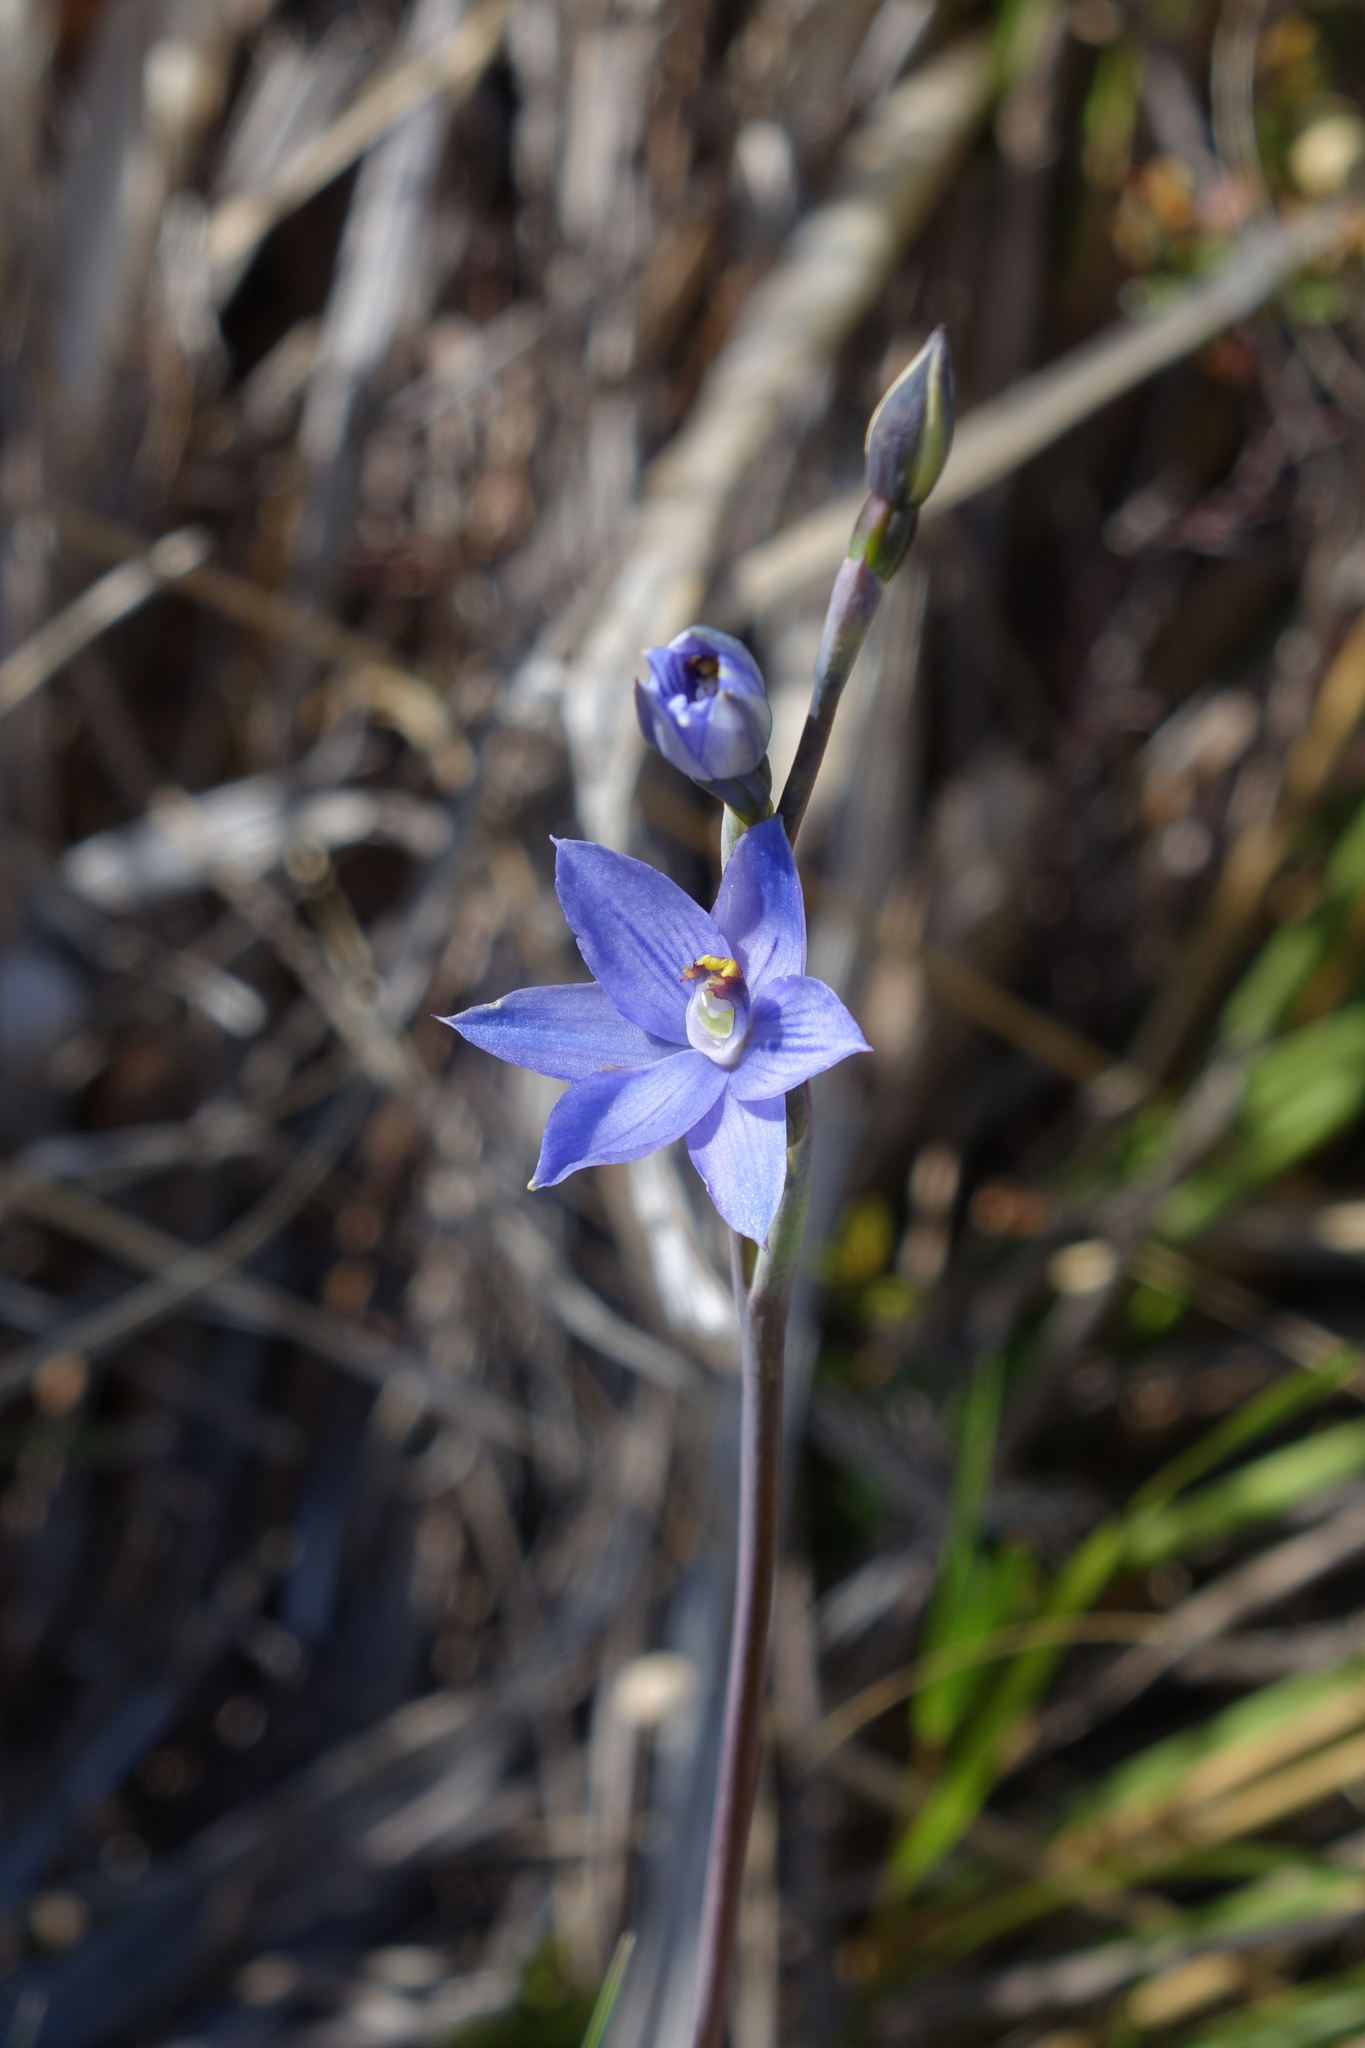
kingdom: Plantae
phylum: Tracheophyta
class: Liliopsida
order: Asparagales
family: Orchidaceae
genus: Thelymitra
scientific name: Thelymitra pulchella
